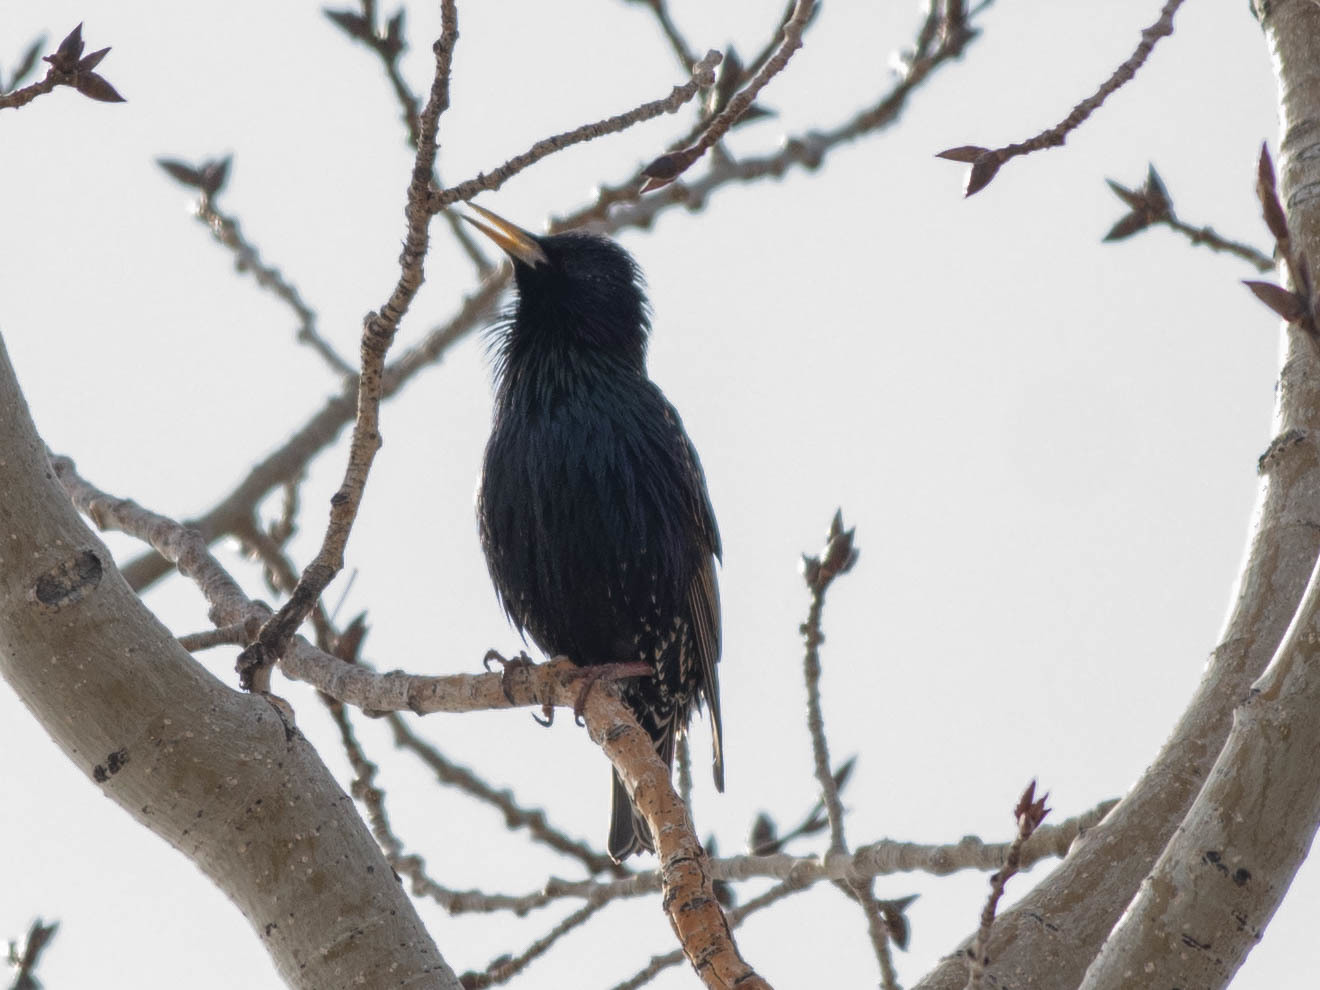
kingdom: Animalia
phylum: Chordata
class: Aves
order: Passeriformes
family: Sturnidae
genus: Sturnus
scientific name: Sturnus vulgaris
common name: Common starling
